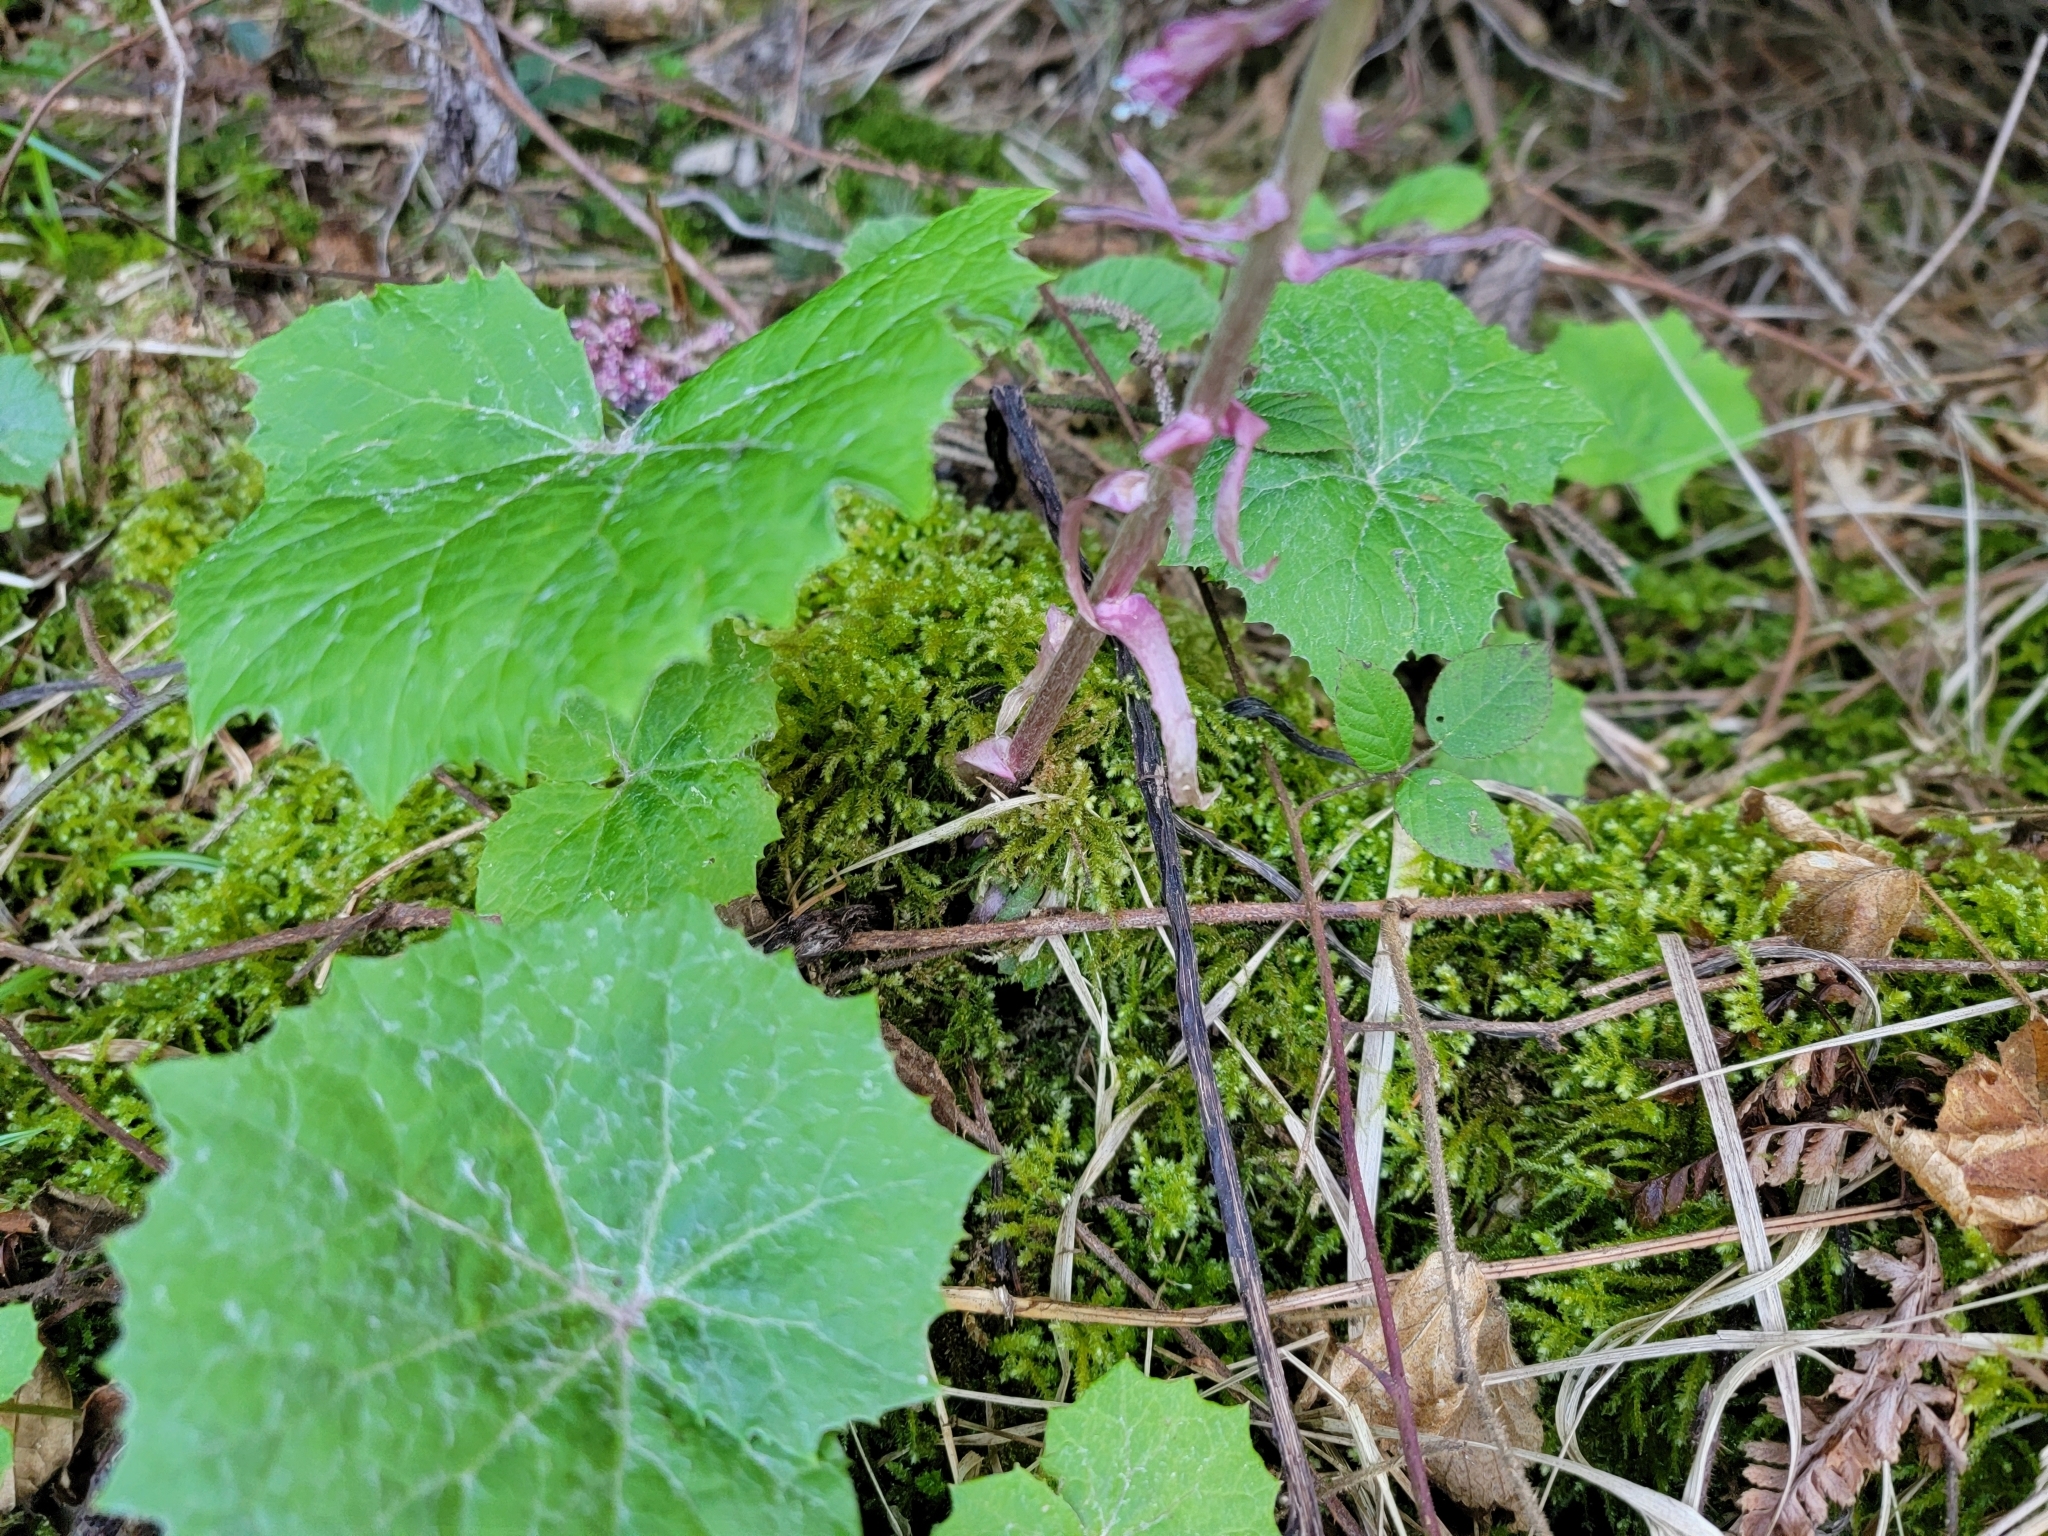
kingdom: Plantae
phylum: Tracheophyta
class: Magnoliopsida
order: Asterales
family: Asteraceae
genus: Petasites
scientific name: Petasites hybridus
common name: Butterbur
